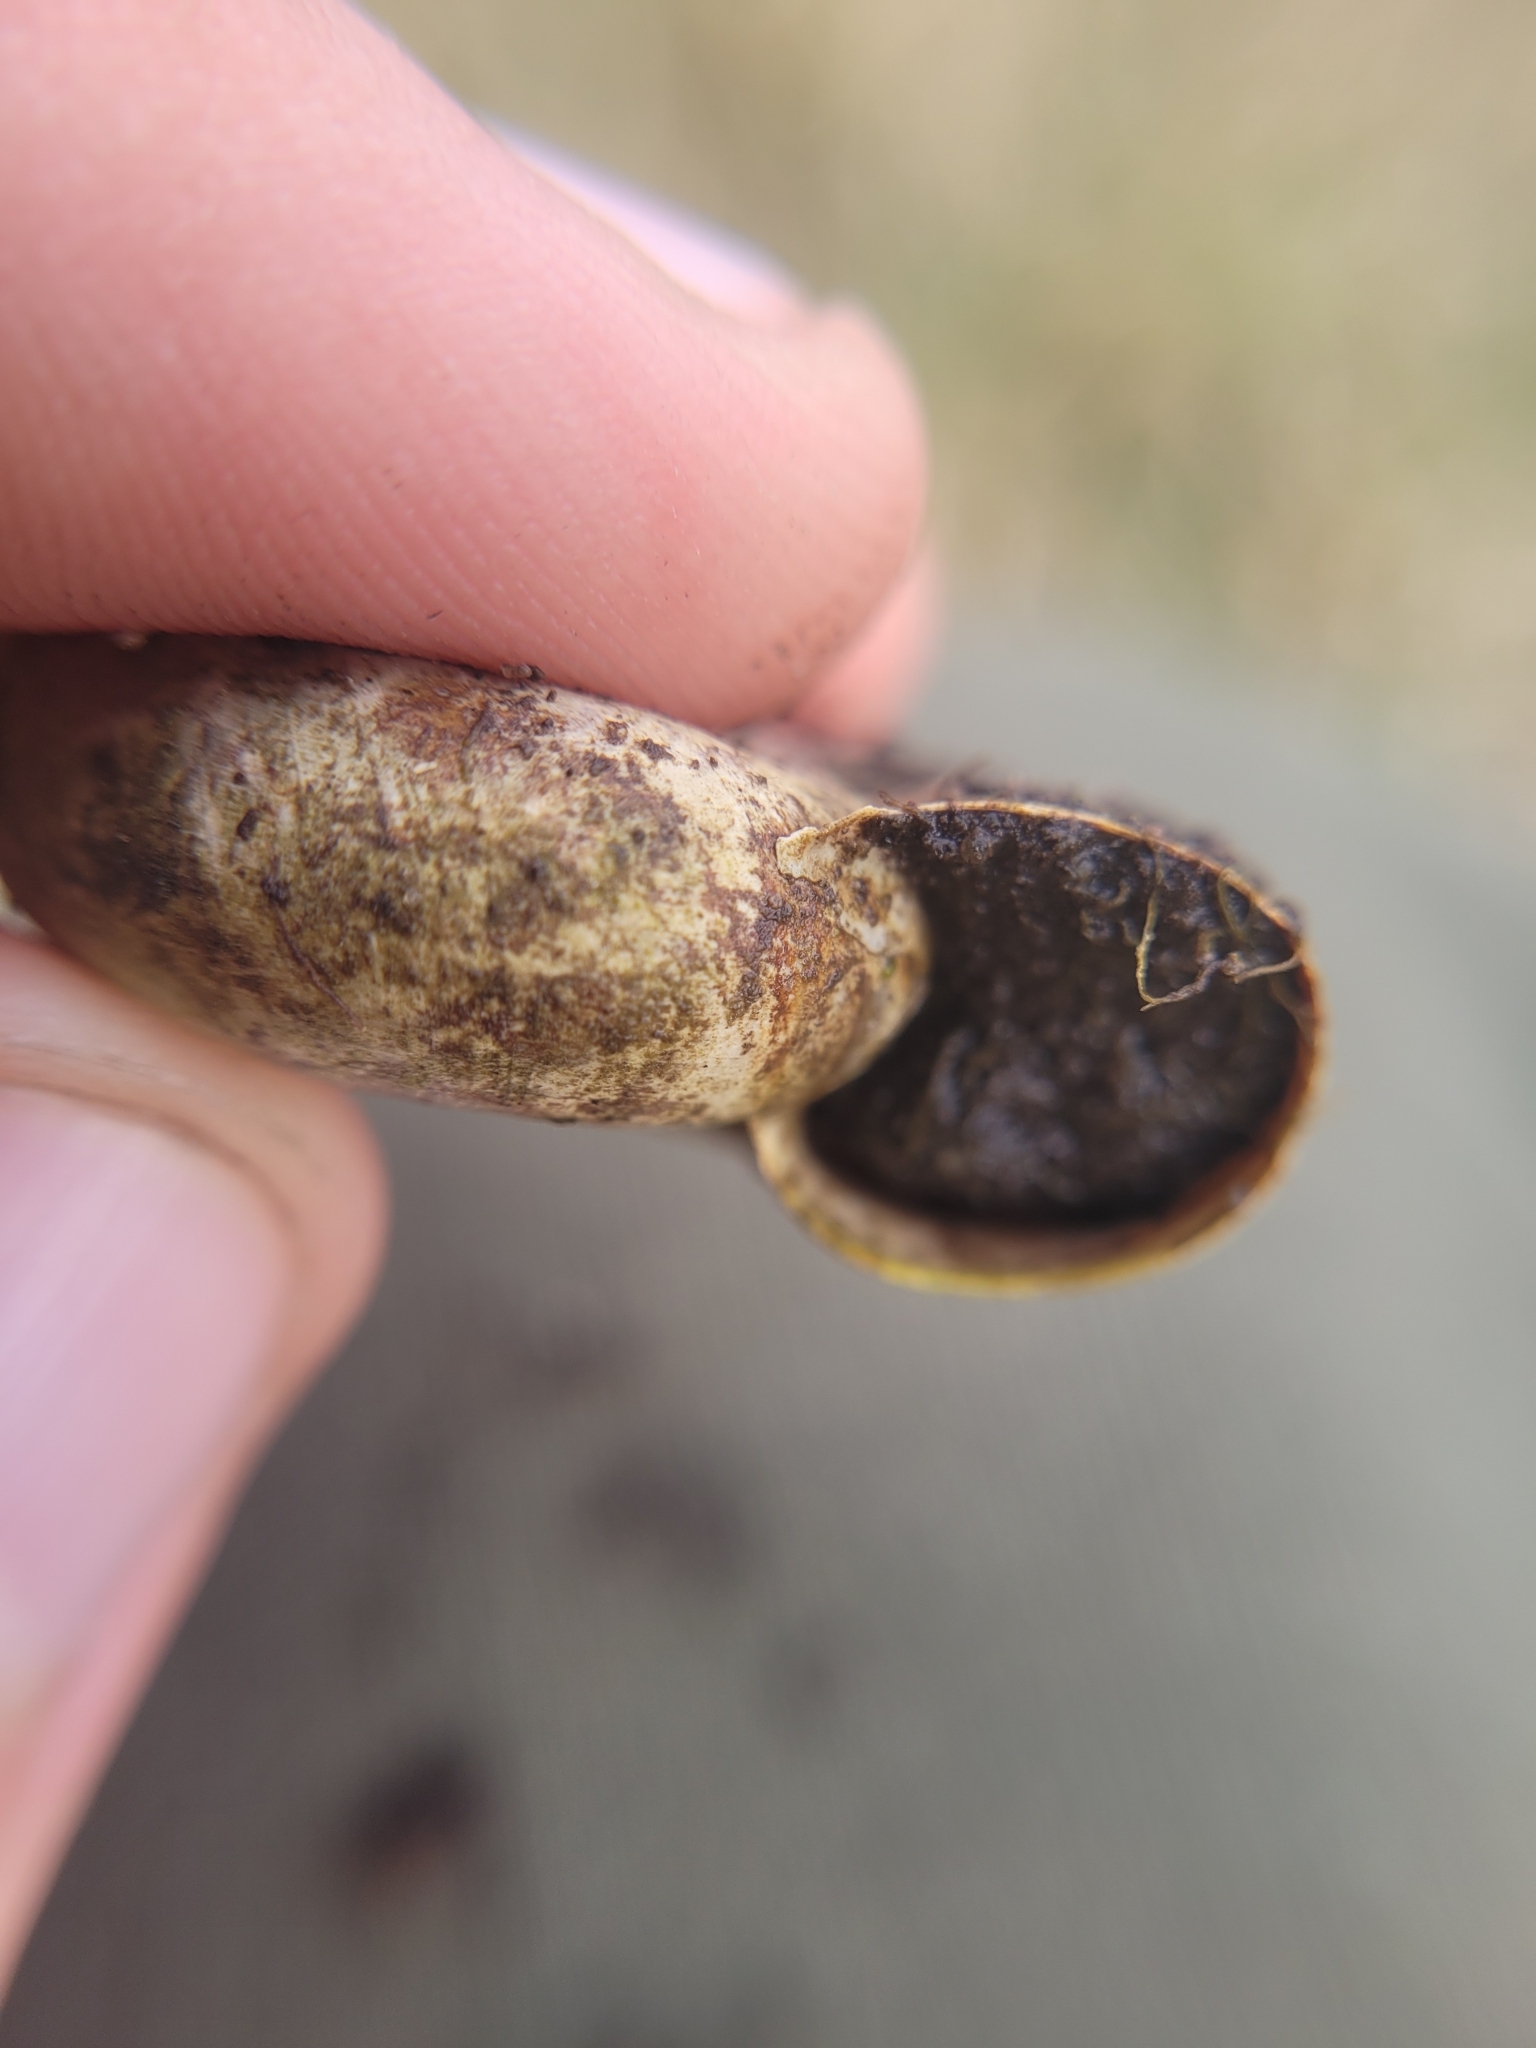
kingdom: Animalia
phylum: Mollusca
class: Gastropoda
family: Planorbidae
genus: Planorbarius
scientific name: Planorbarius corneus
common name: Great ramshorn
